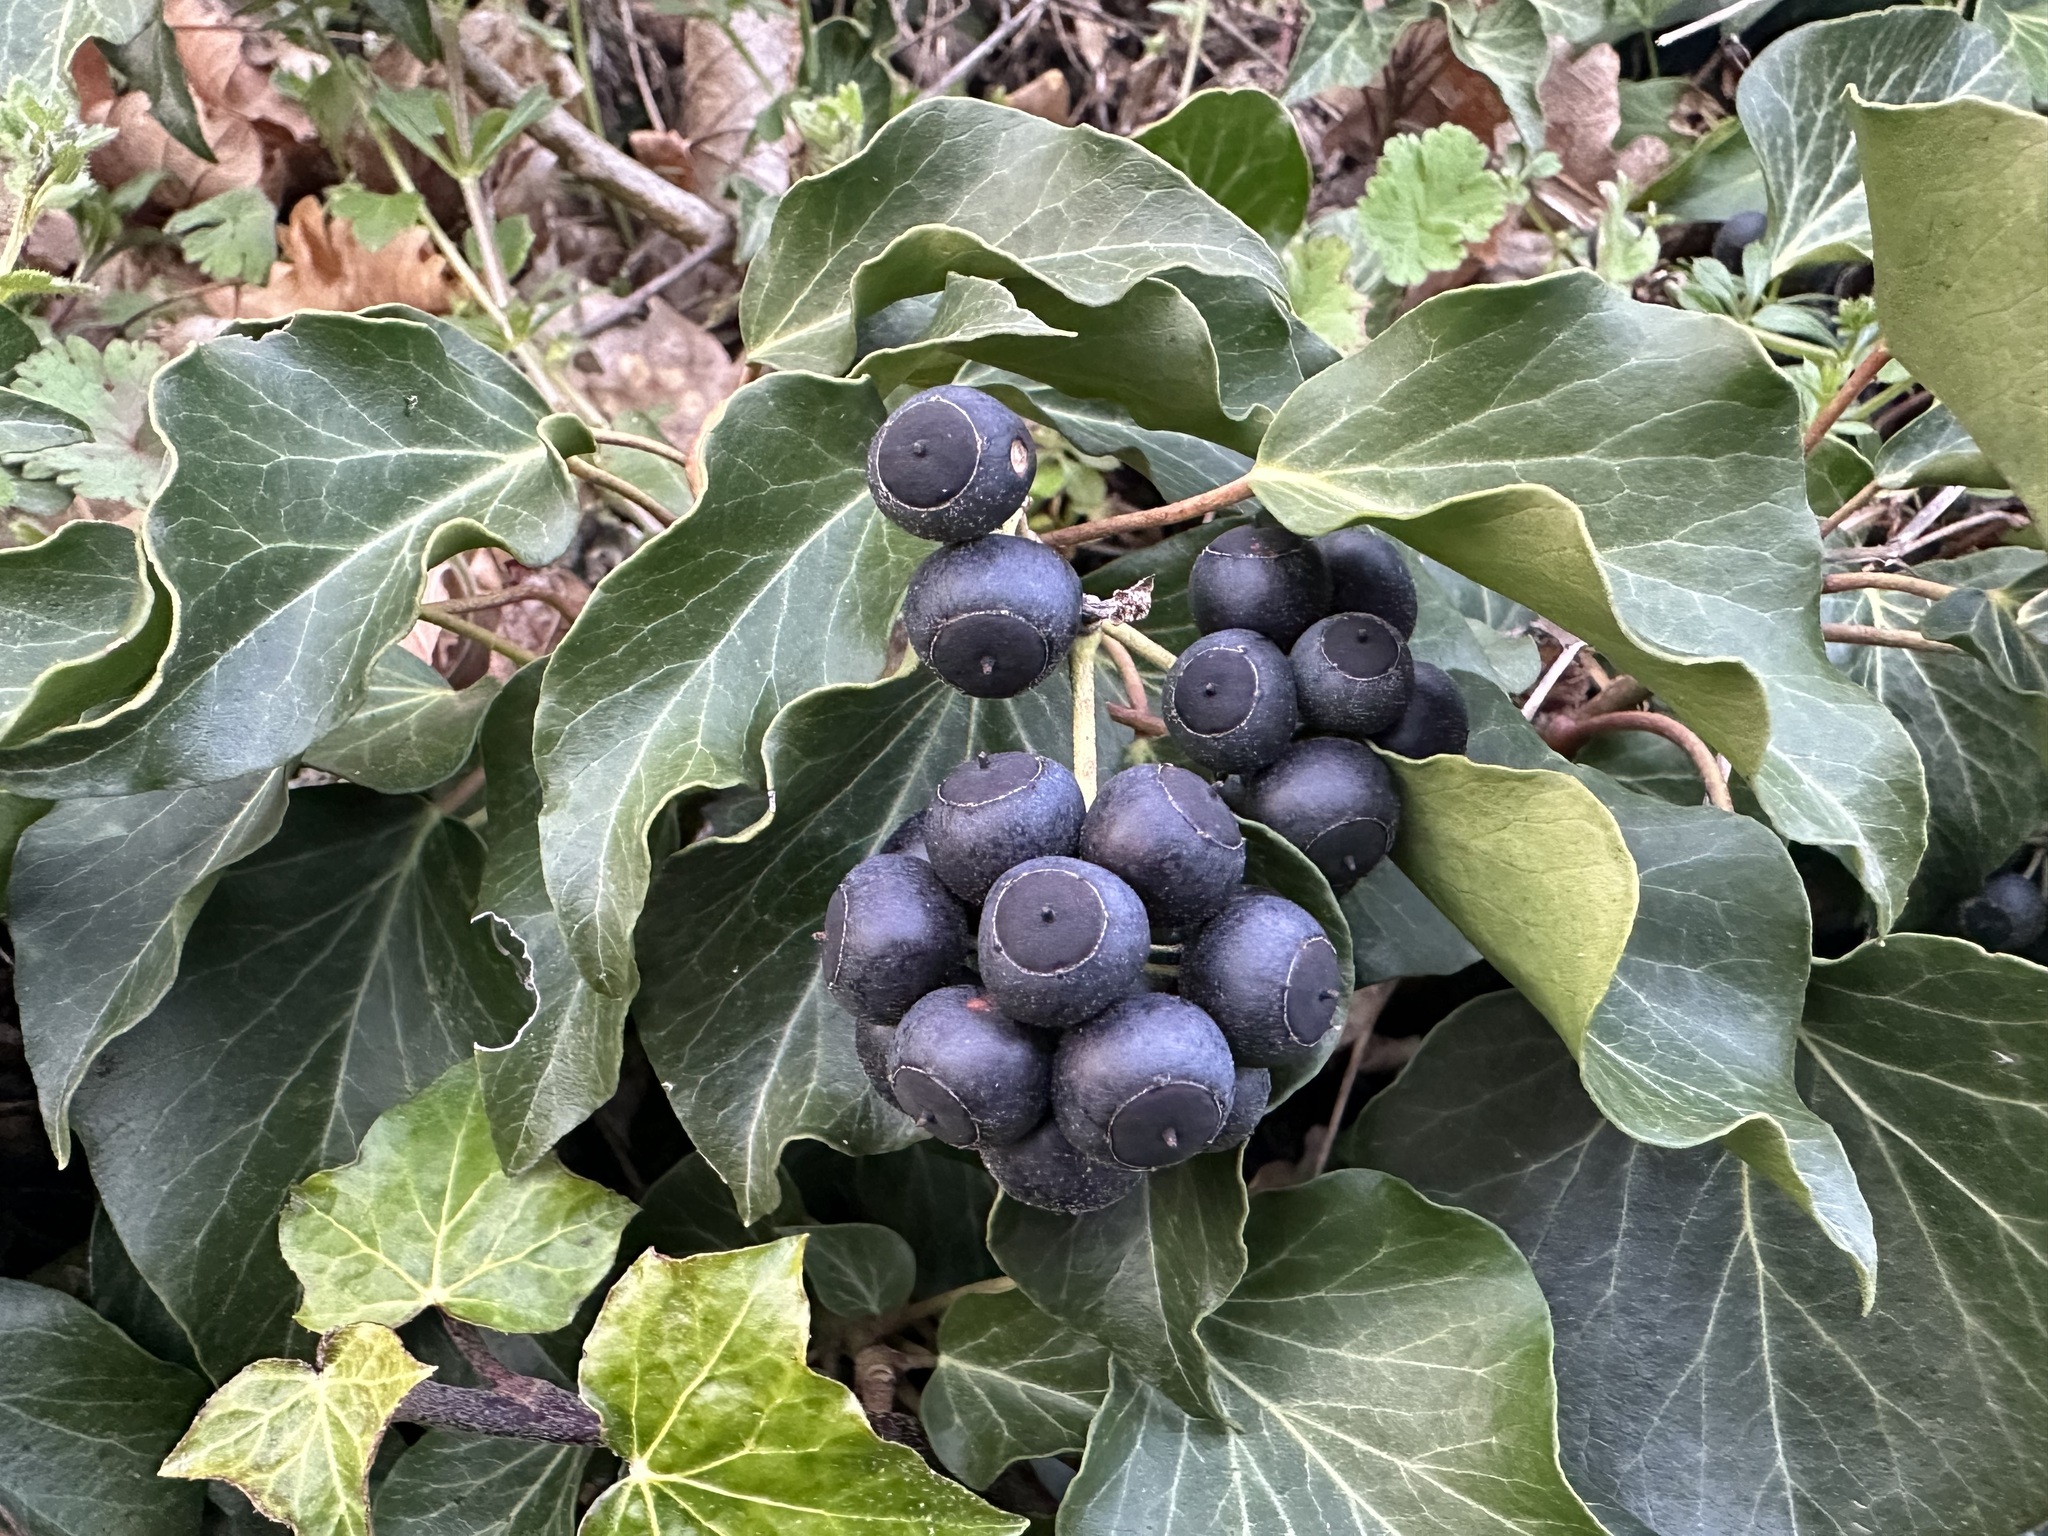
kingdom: Plantae
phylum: Tracheophyta
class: Magnoliopsida
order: Apiales
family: Araliaceae
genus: Hedera
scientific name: Hedera helix
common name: Ivy
